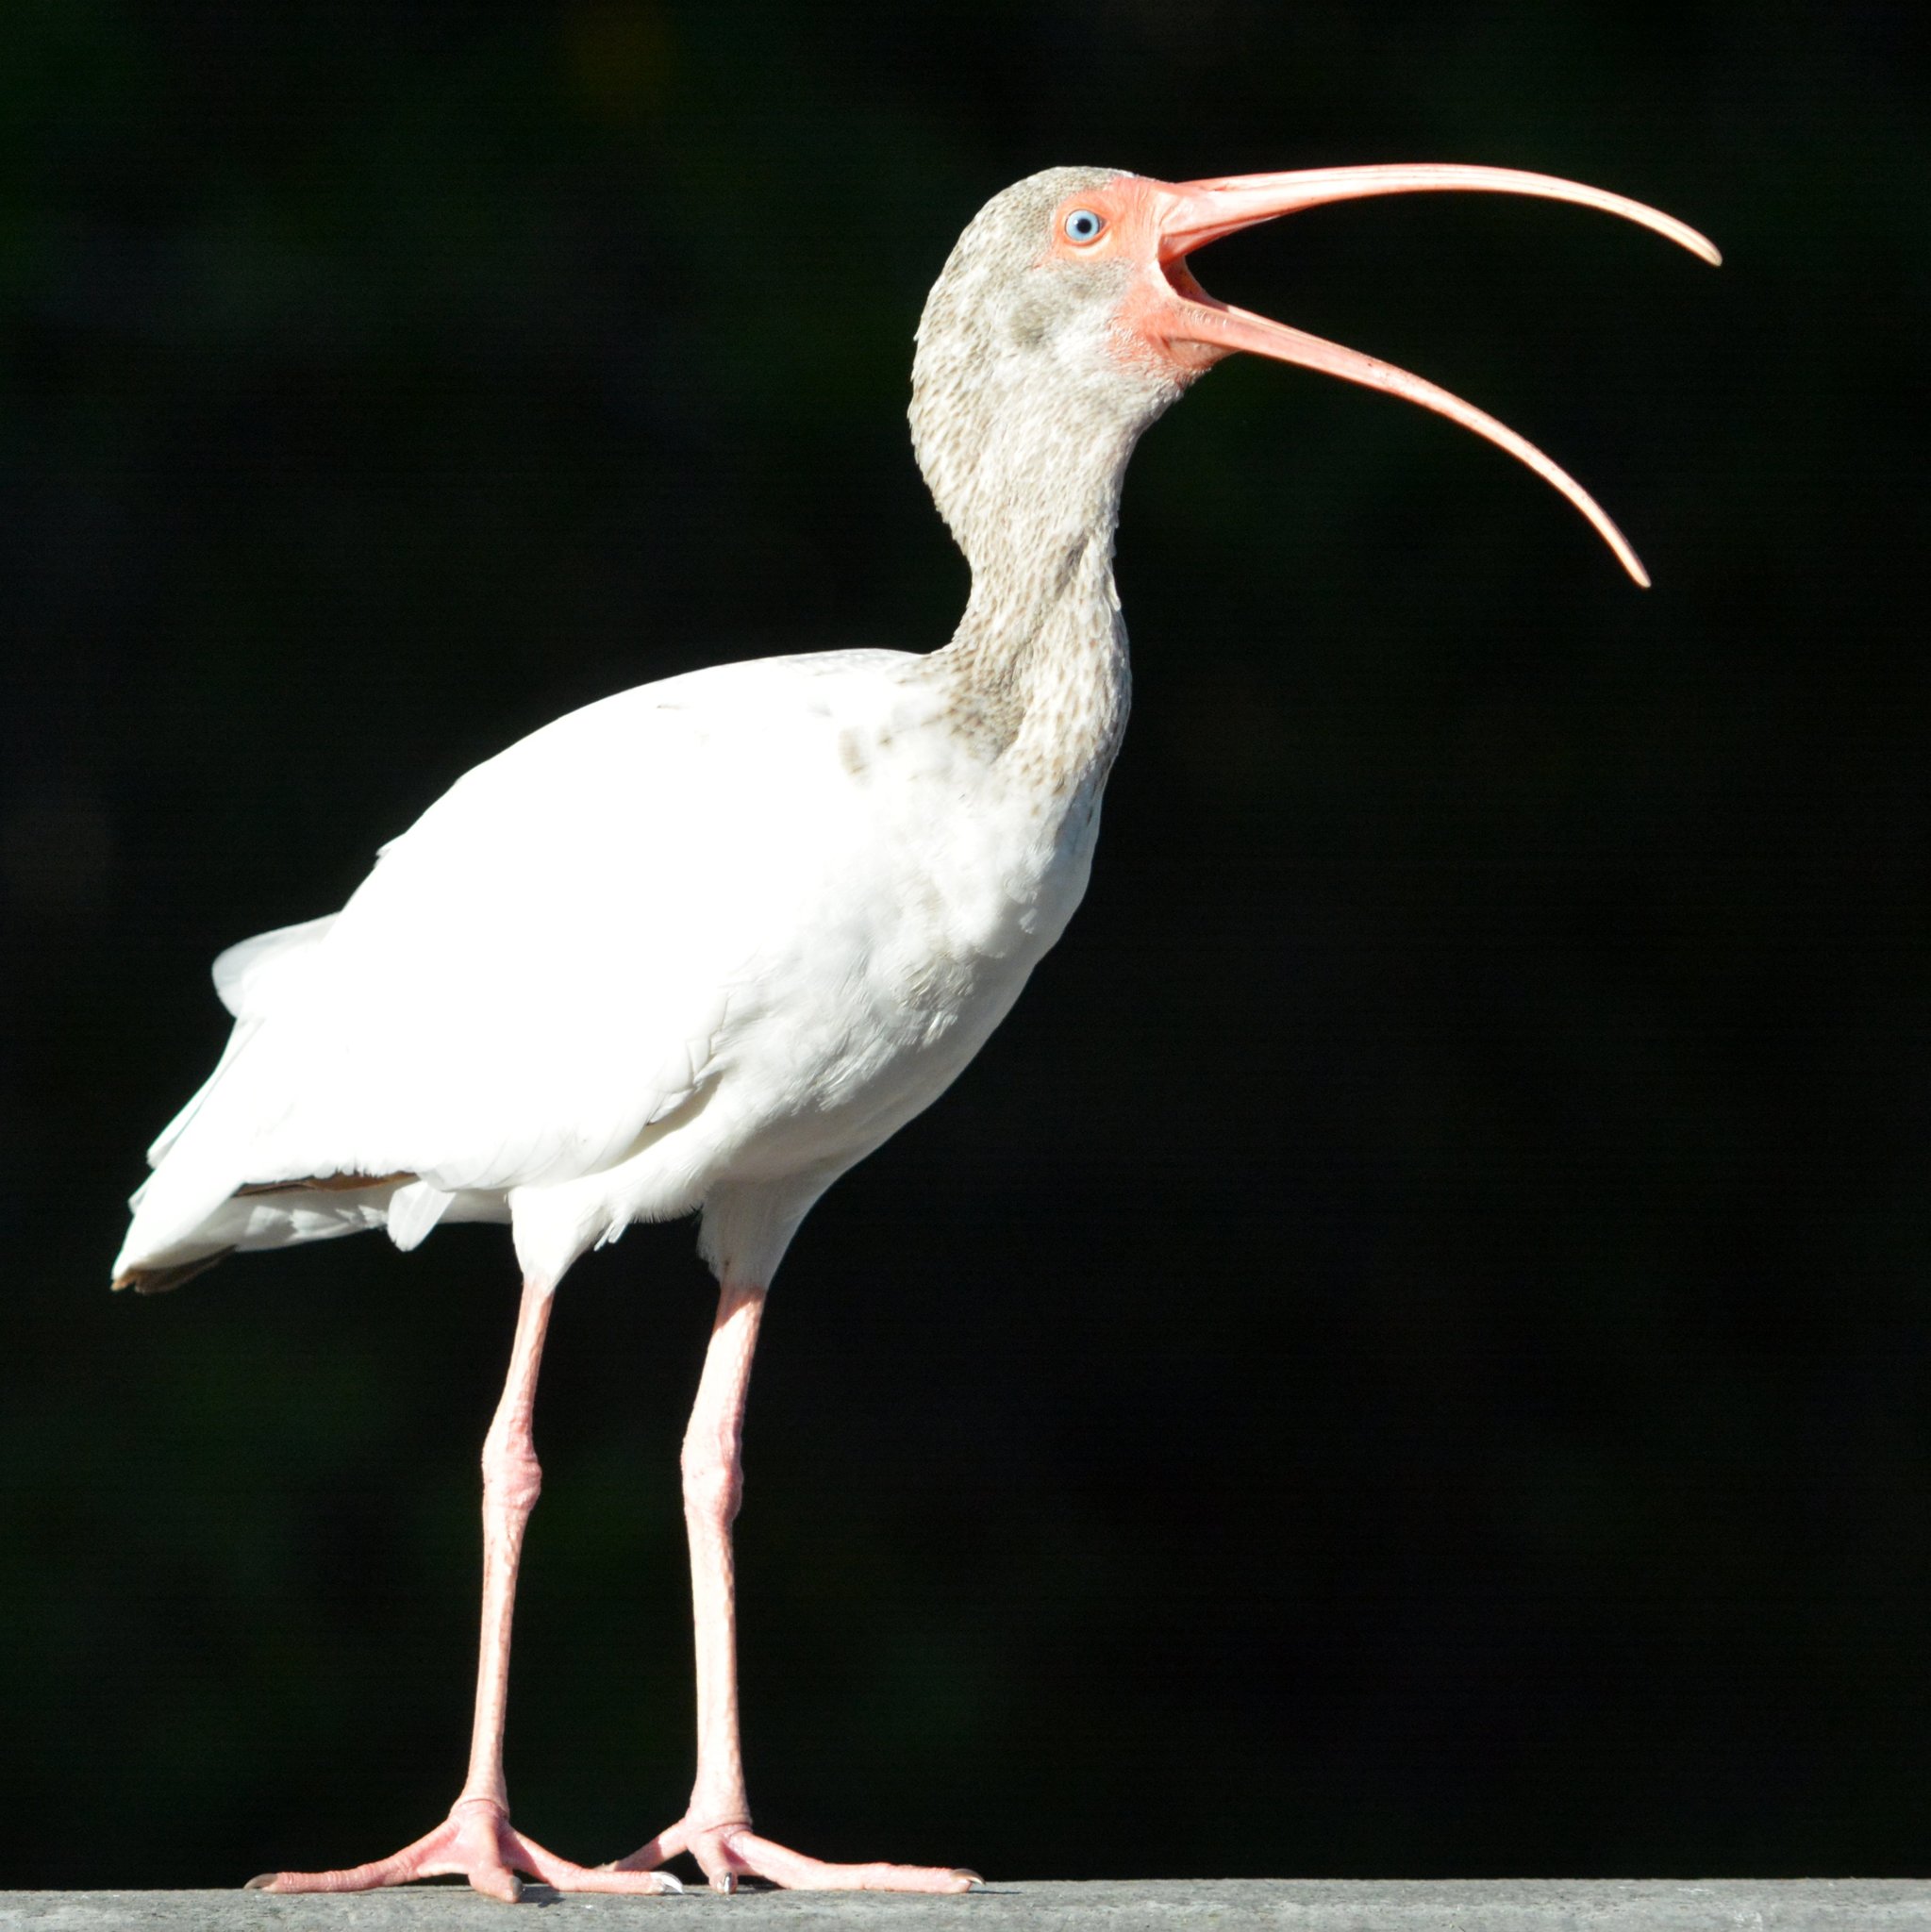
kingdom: Animalia
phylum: Chordata
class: Aves
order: Pelecaniformes
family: Threskiornithidae
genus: Eudocimus
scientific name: Eudocimus albus
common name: White ibis
